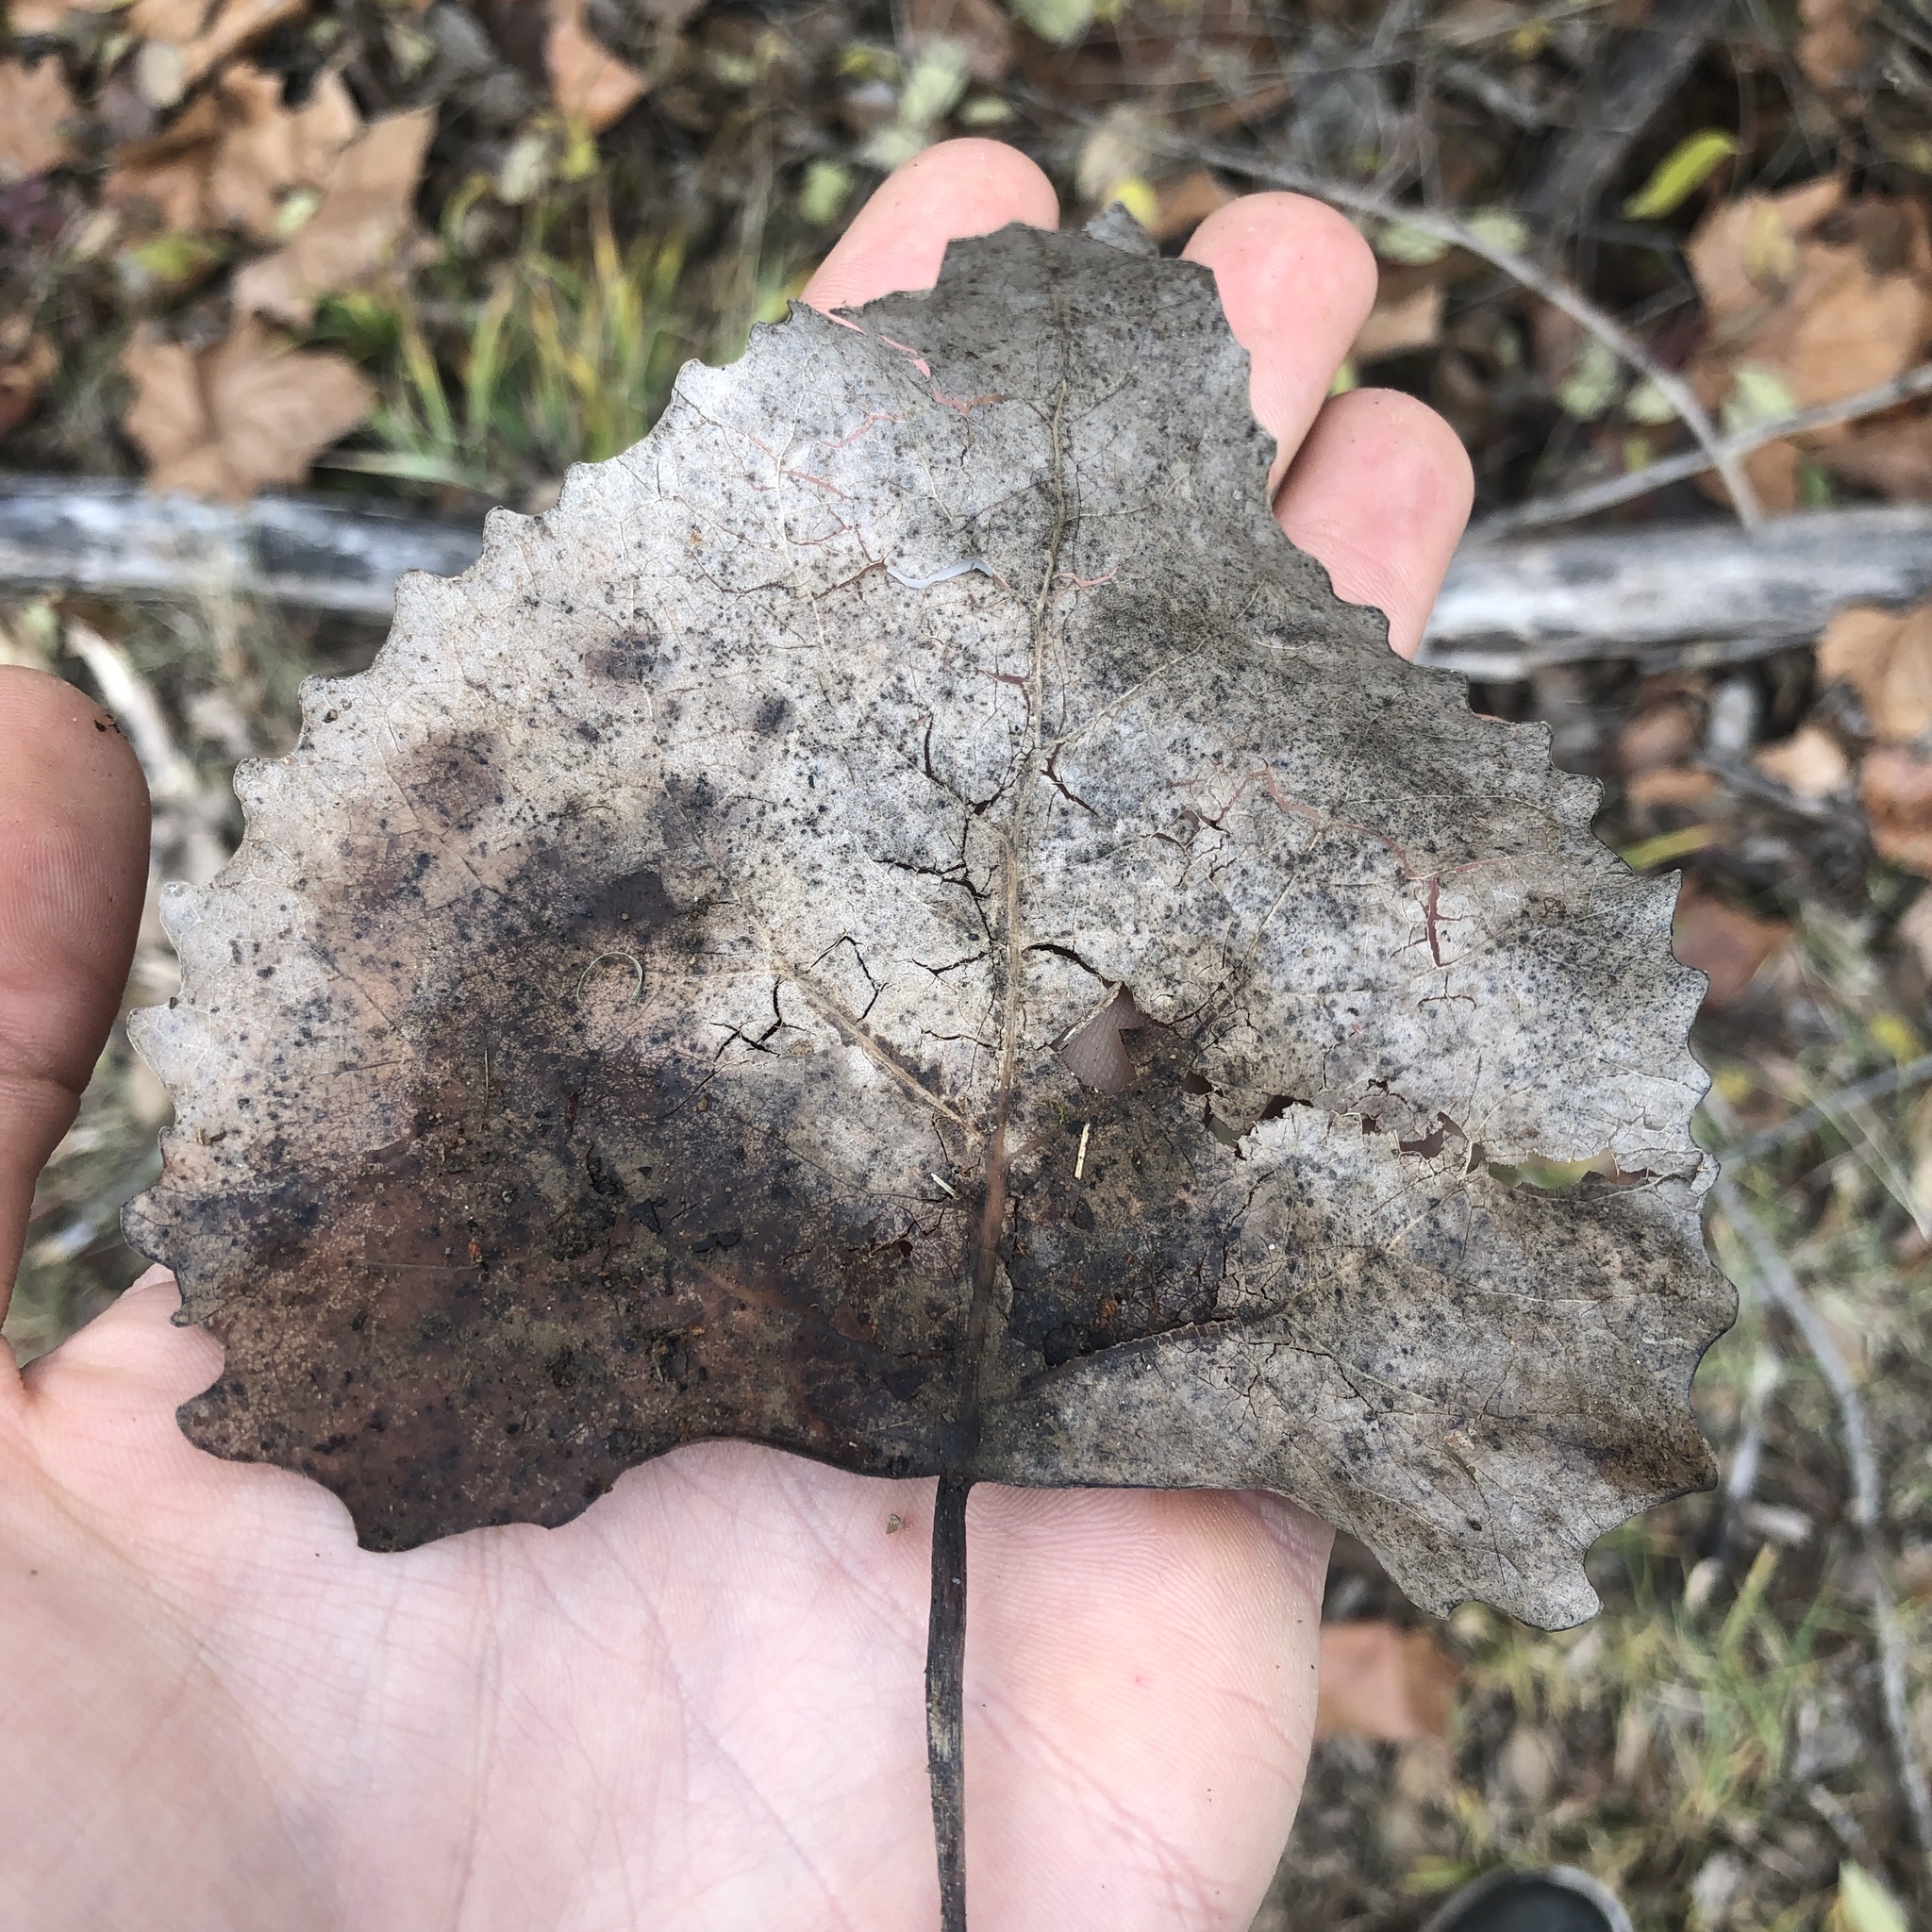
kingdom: Plantae
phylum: Tracheophyta
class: Magnoliopsida
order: Malpighiales
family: Salicaceae
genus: Populus
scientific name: Populus deltoides
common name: Eastern cottonwood
